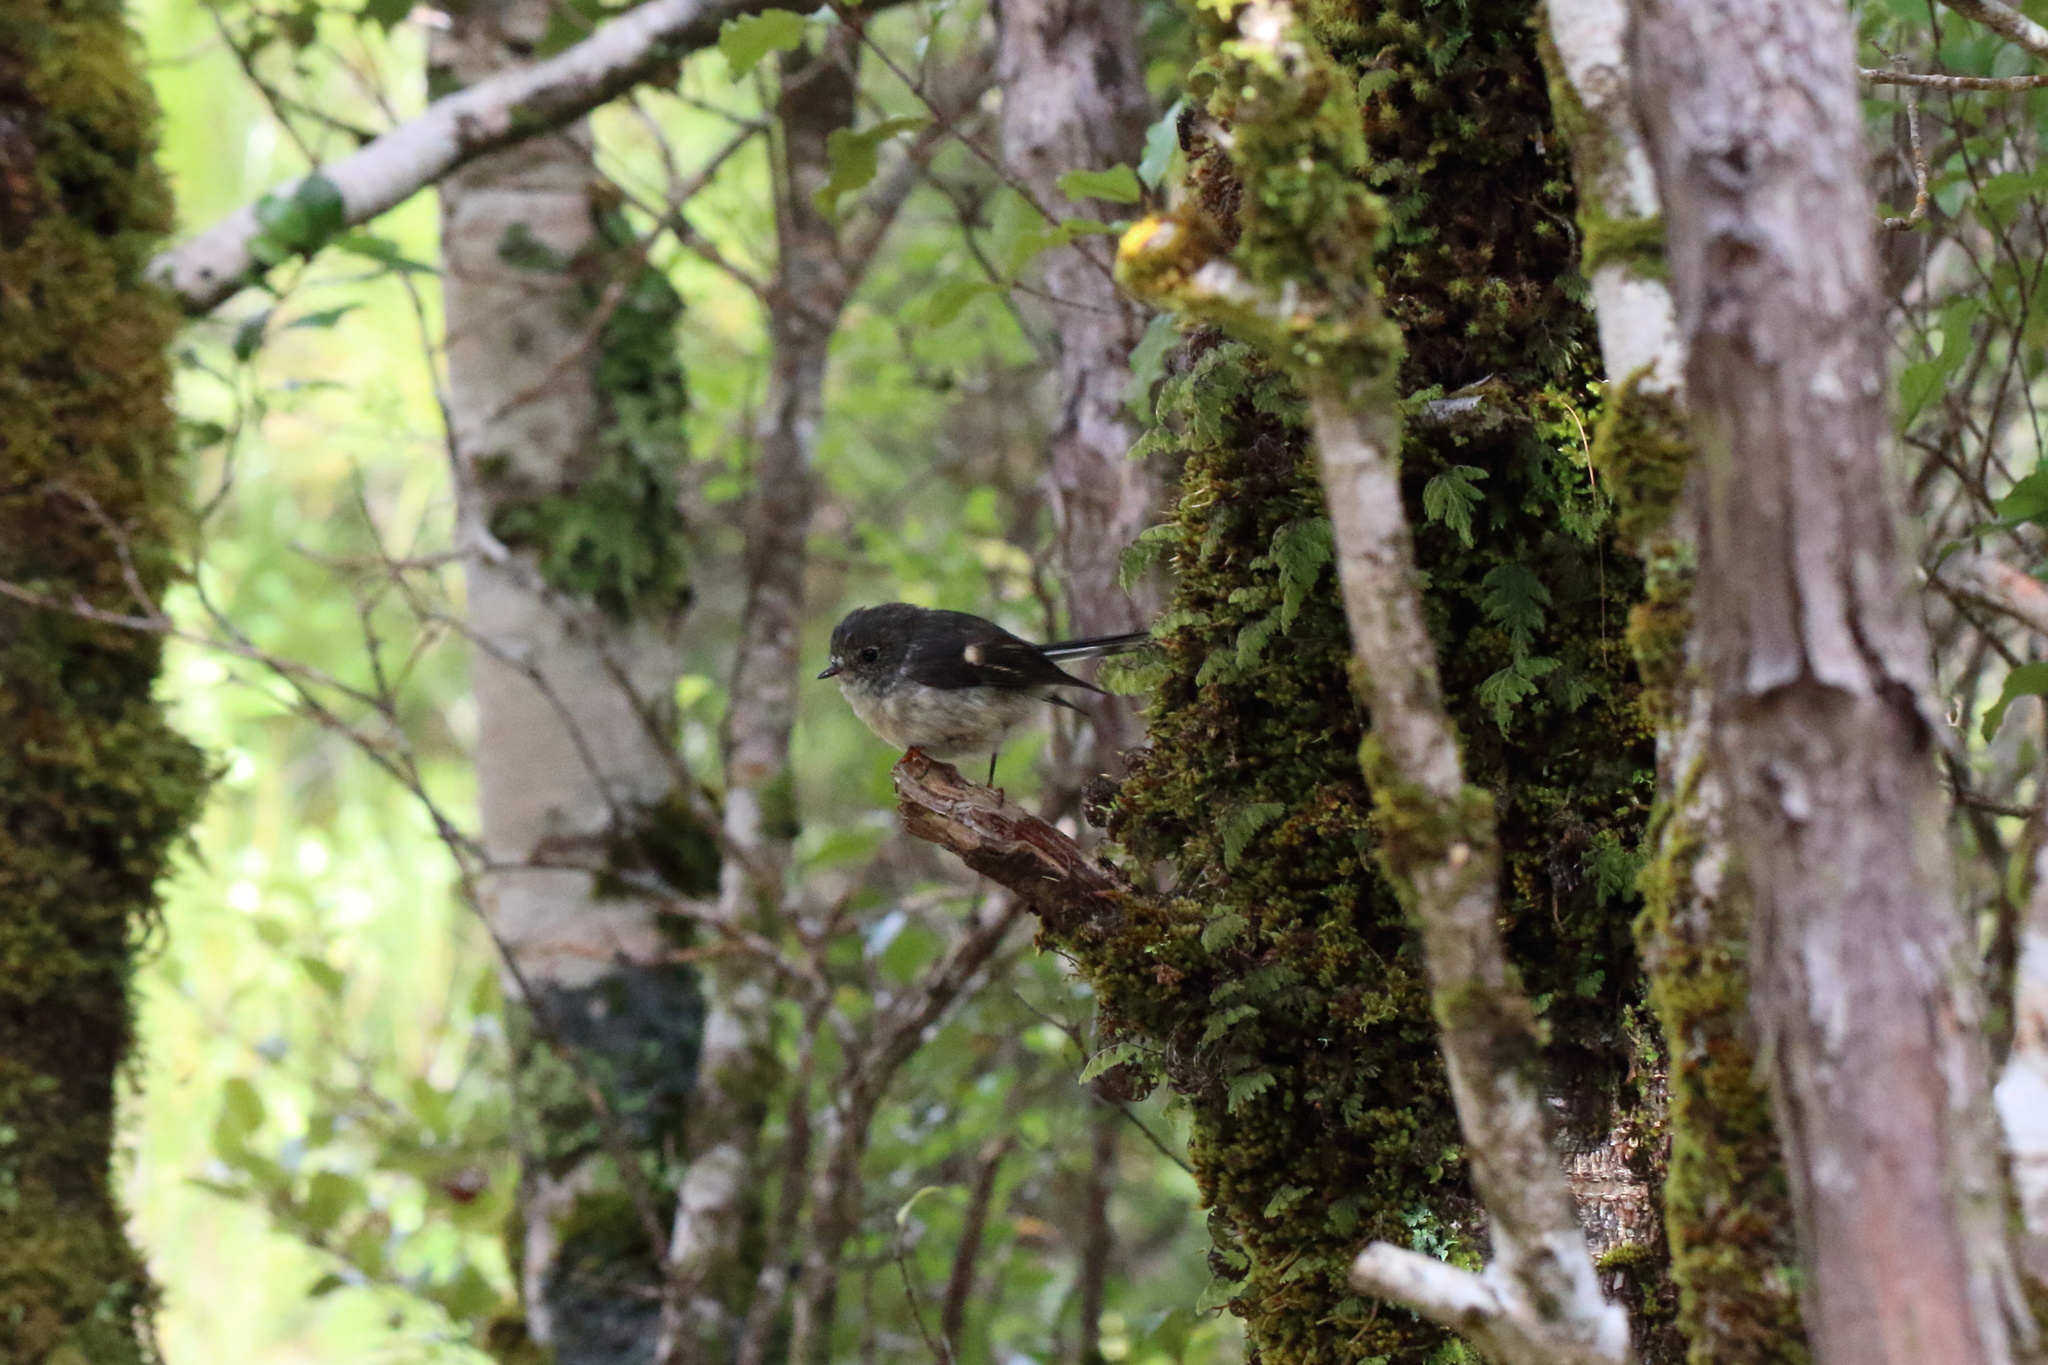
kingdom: Animalia
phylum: Chordata
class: Aves
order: Passeriformes
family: Petroicidae
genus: Petroica
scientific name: Petroica macrocephala
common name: Tomtit
